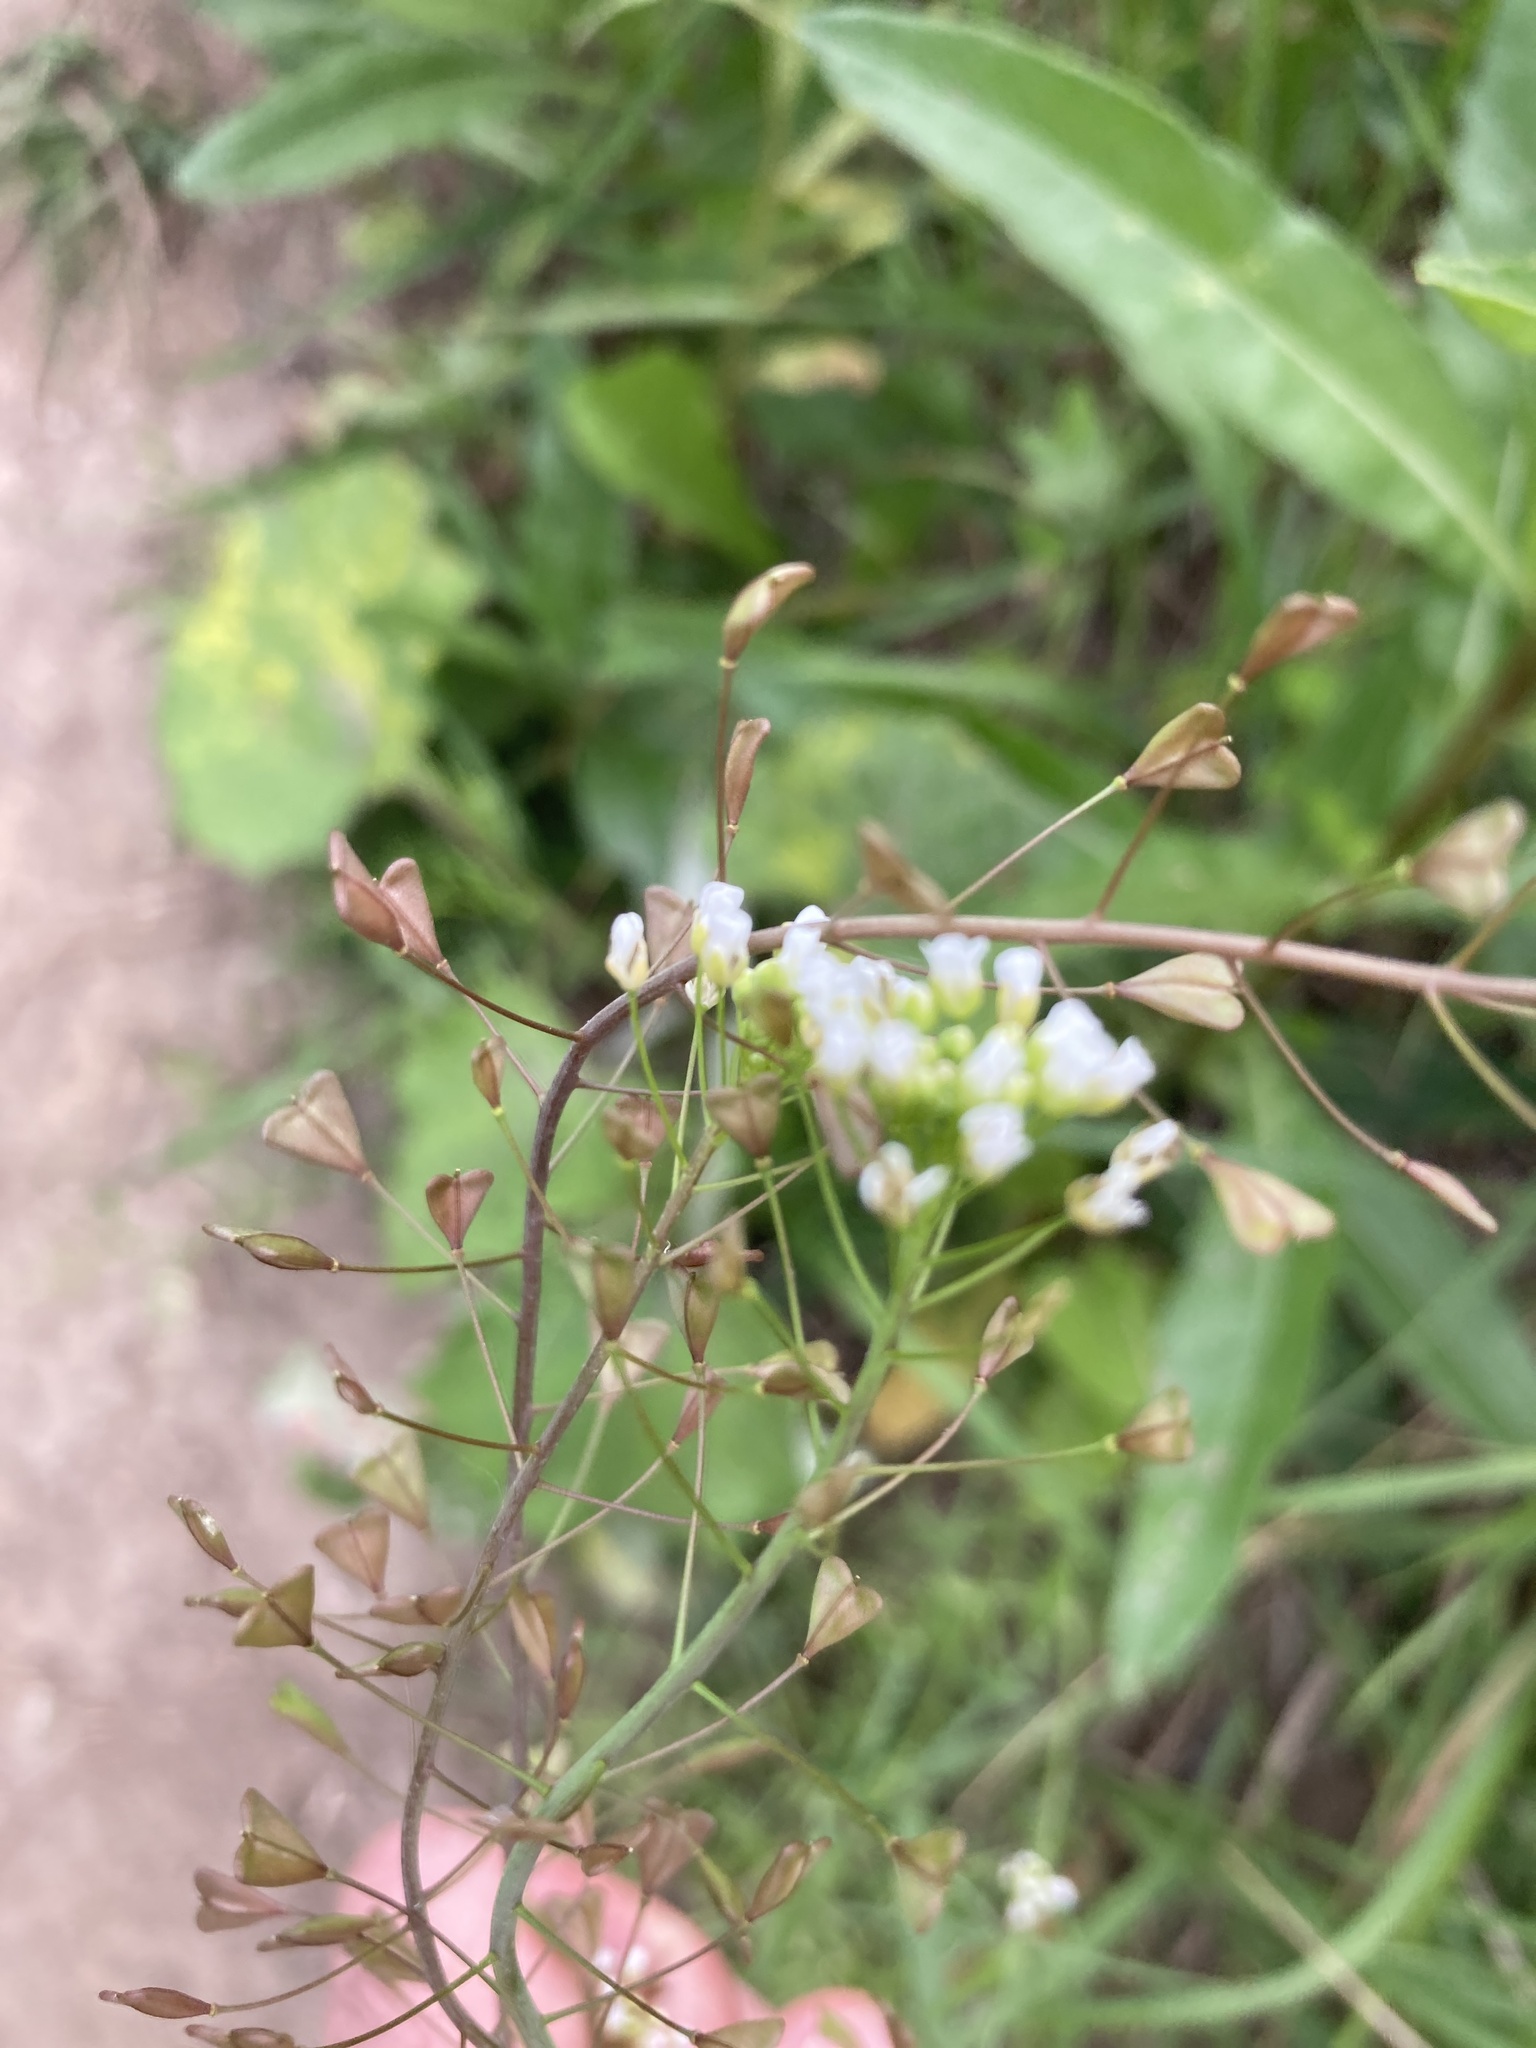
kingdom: Plantae
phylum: Tracheophyta
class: Magnoliopsida
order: Brassicales
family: Brassicaceae
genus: Capsella
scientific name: Capsella bursa-pastoris
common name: Shepherd's purse
